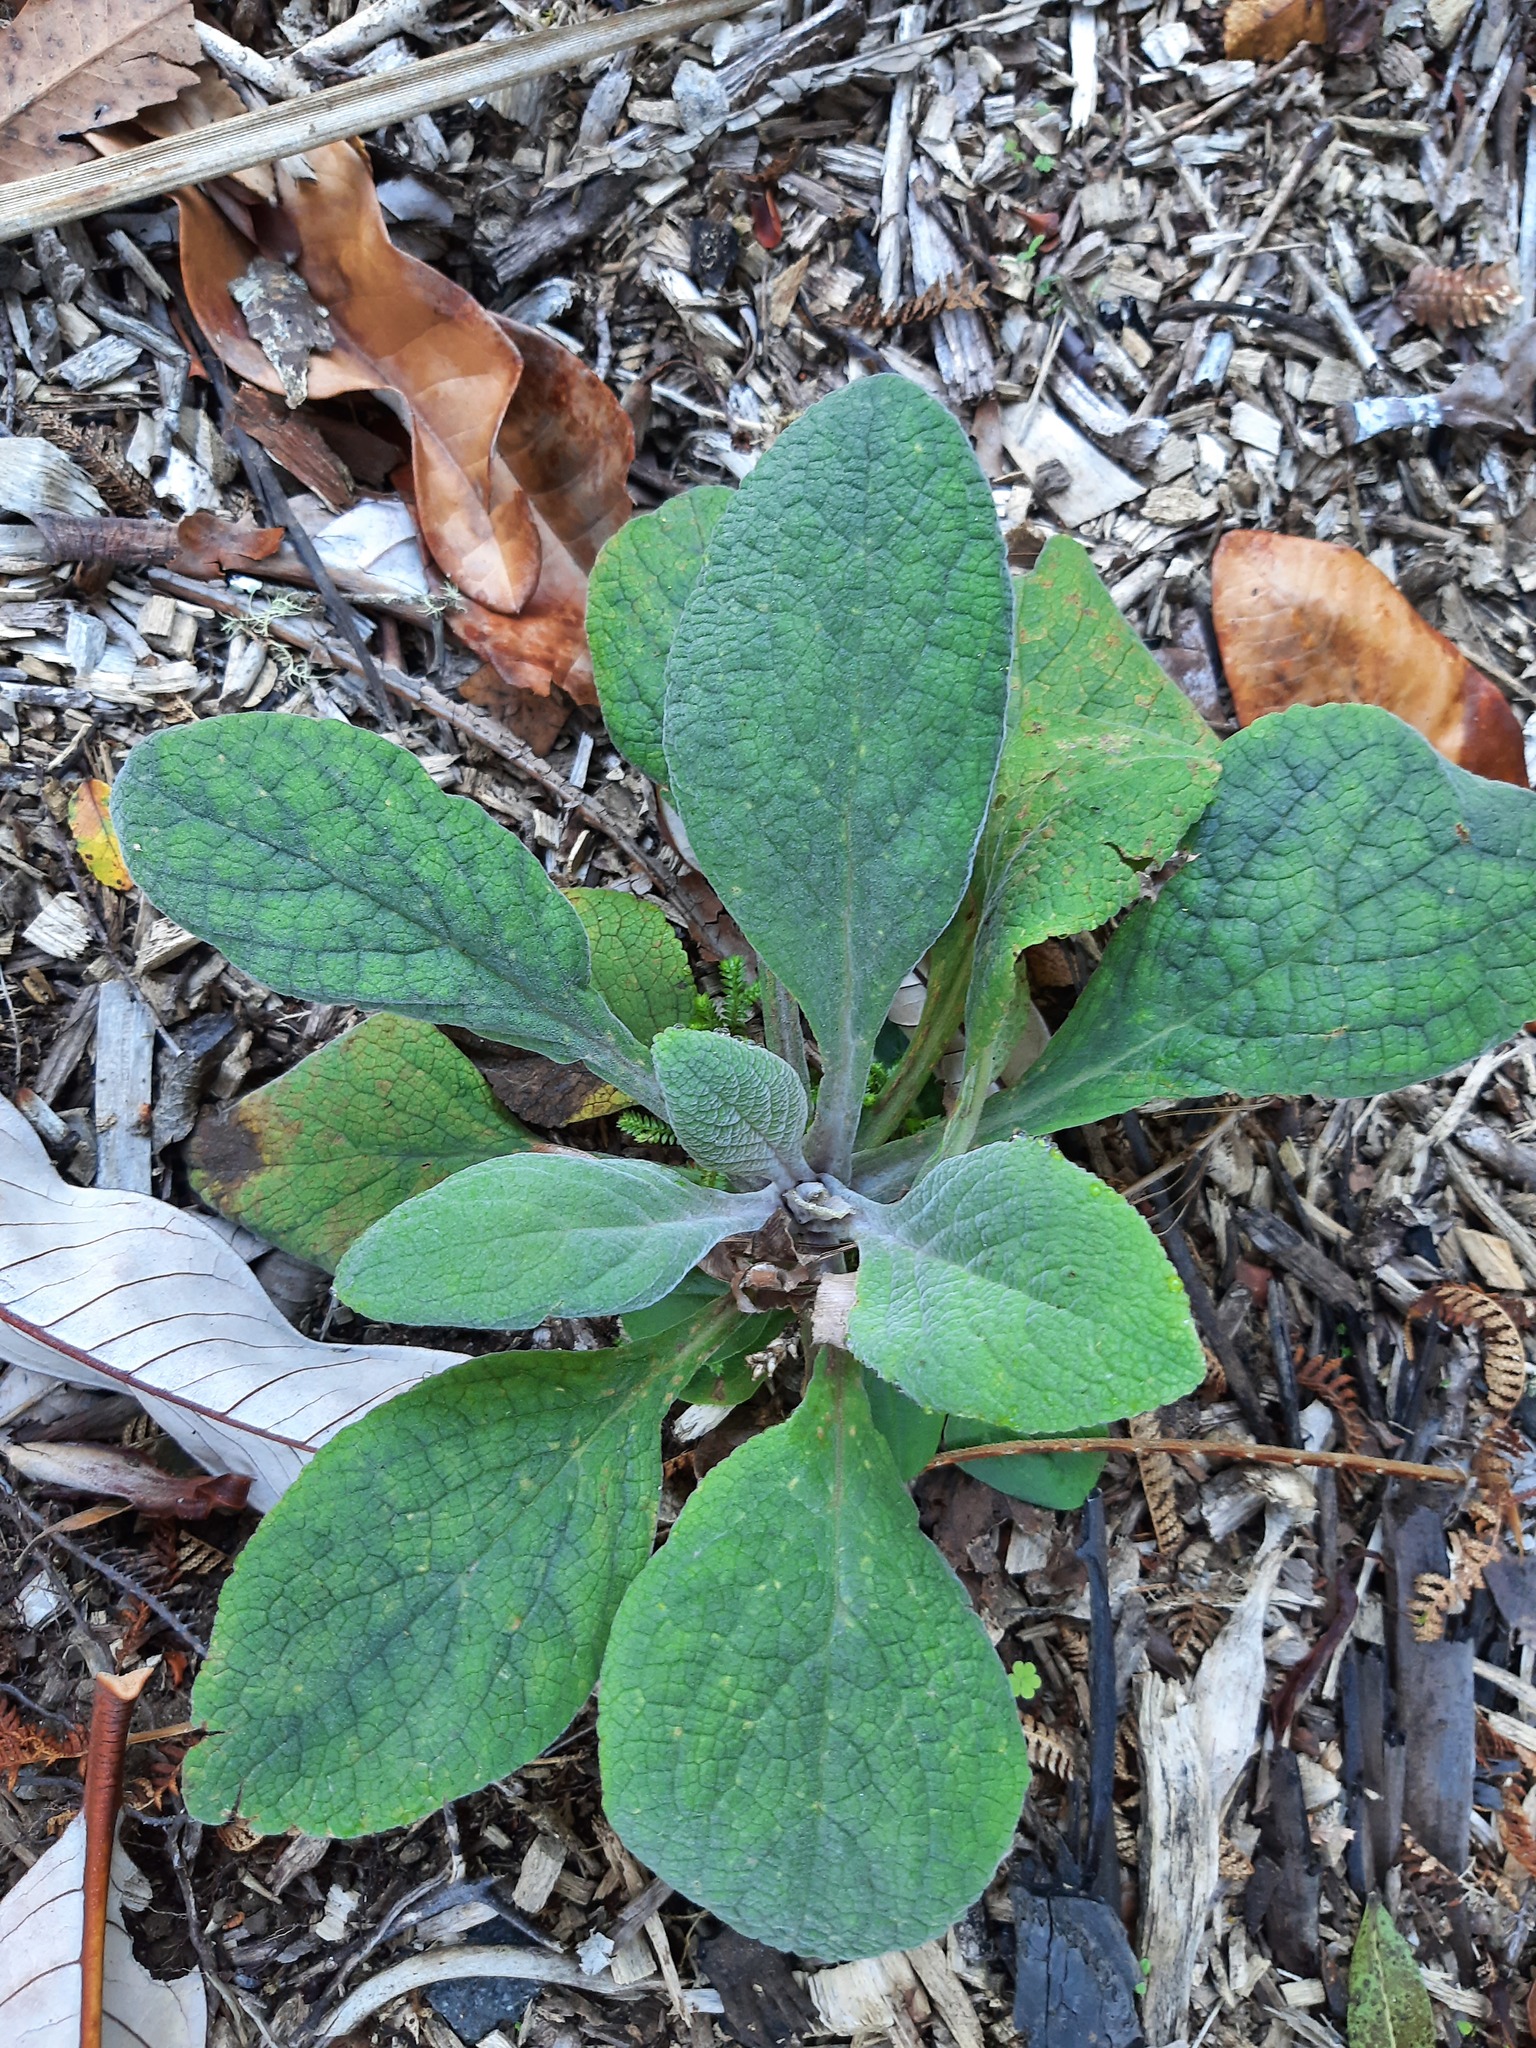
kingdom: Plantae
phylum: Tracheophyta
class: Magnoliopsida
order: Lamiales
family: Plantaginaceae
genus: Digitalis
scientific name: Digitalis purpurea
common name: Foxglove
